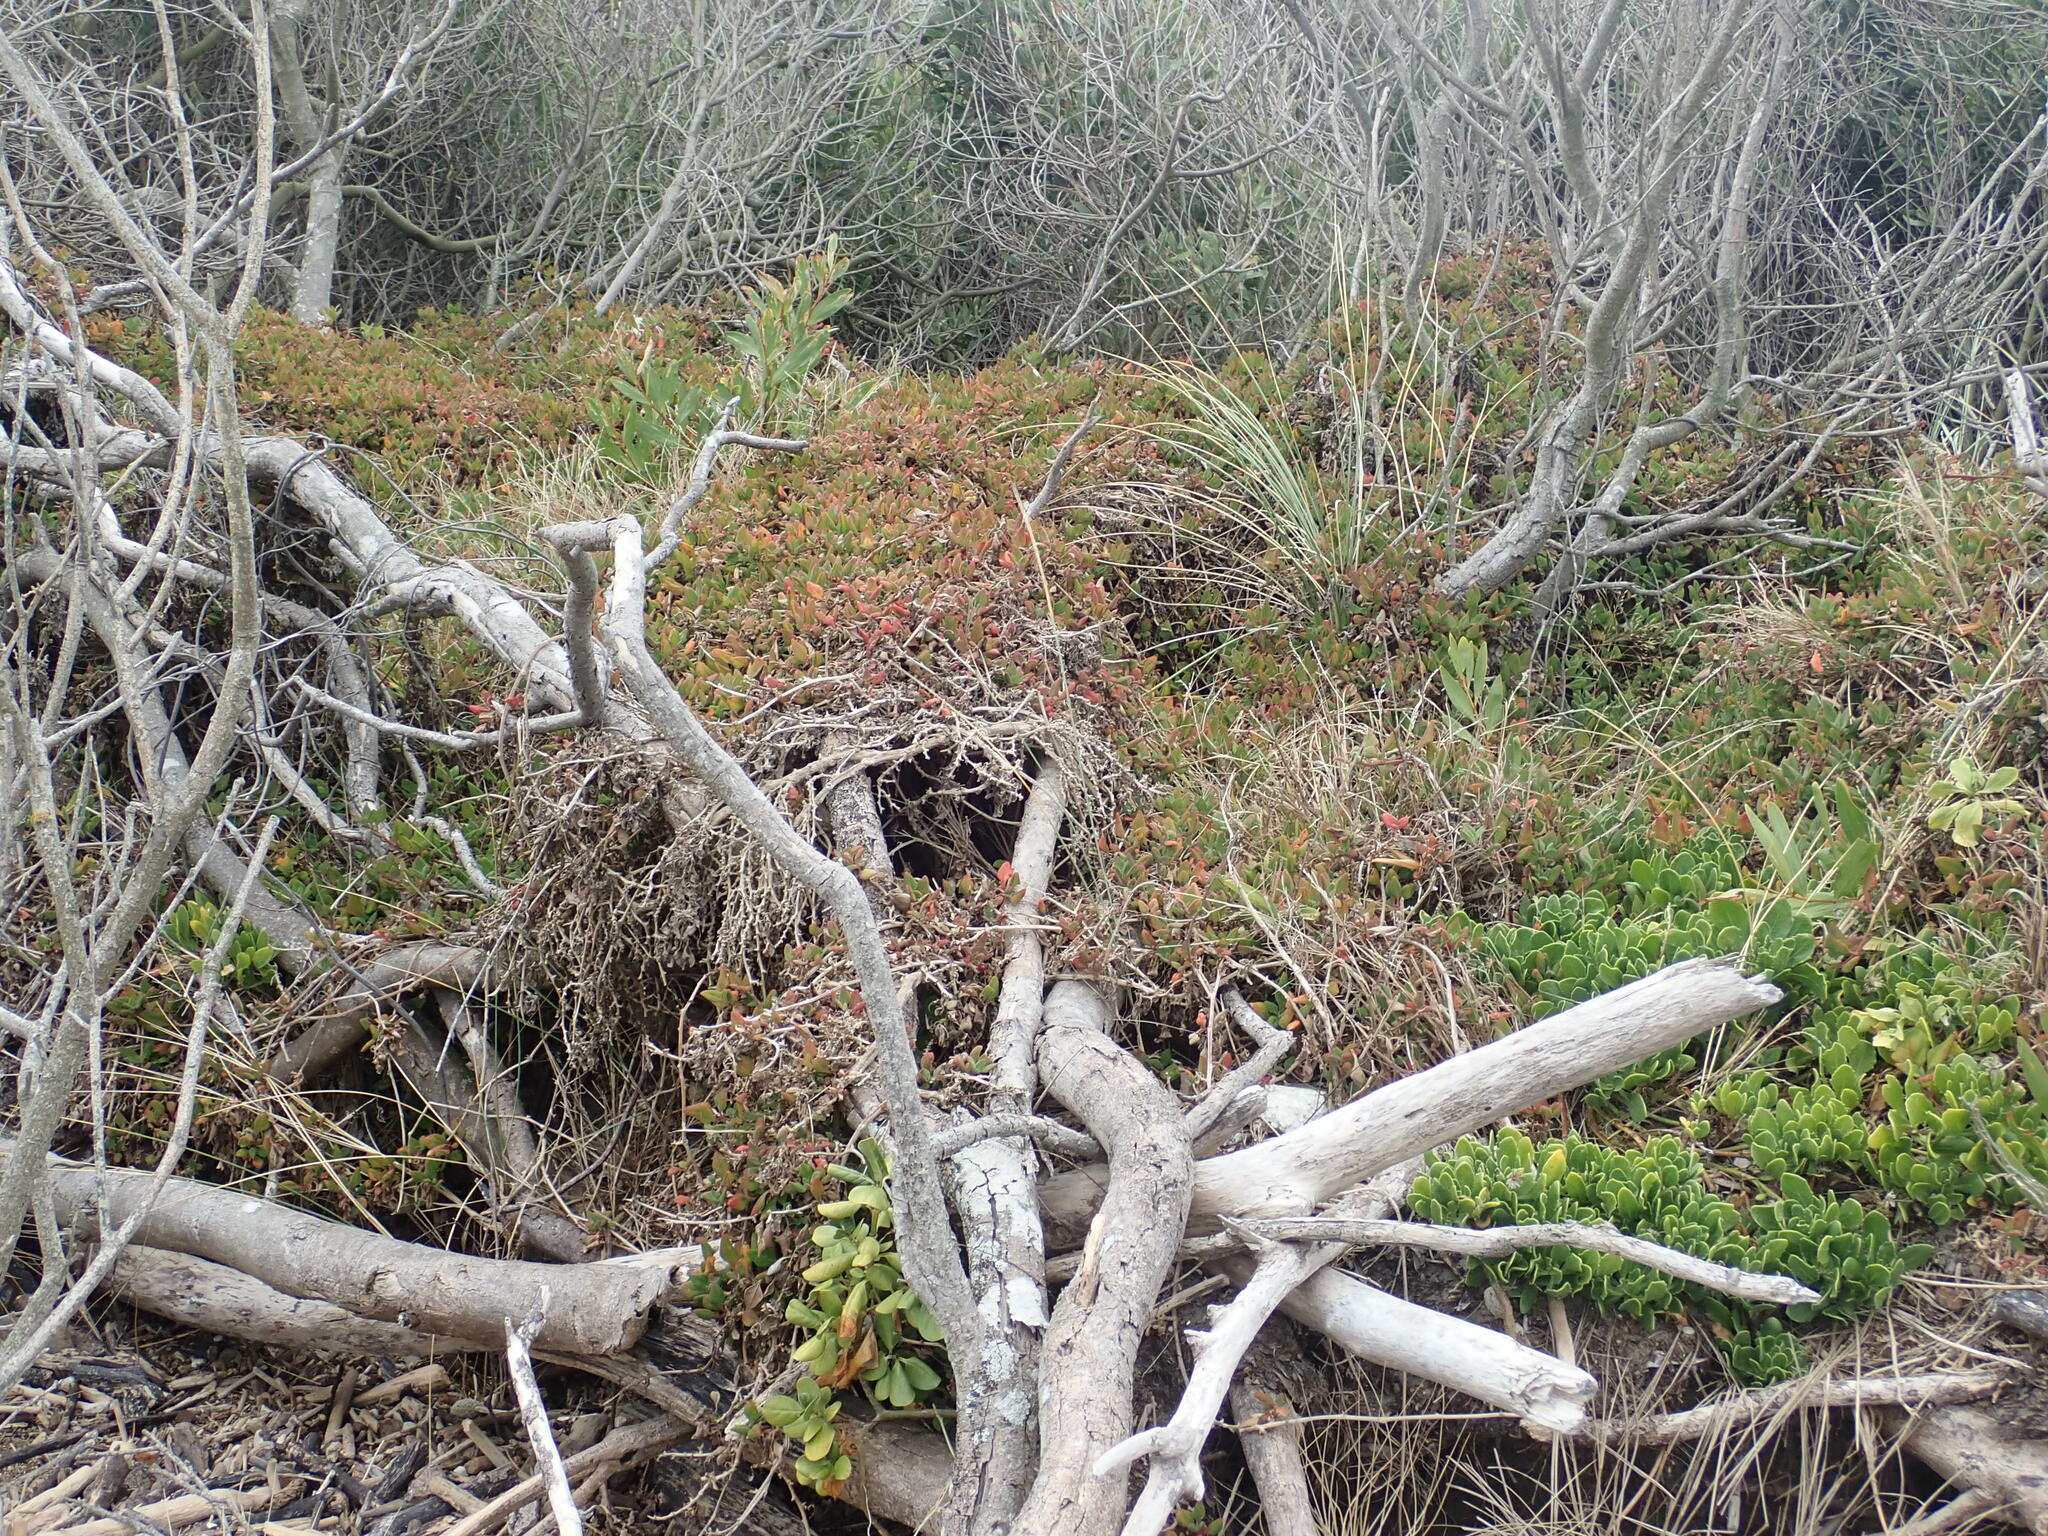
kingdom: Plantae
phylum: Tracheophyta
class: Magnoliopsida
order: Caryophyllales
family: Aizoaceae
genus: Tetragonia
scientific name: Tetragonia implexicoma
